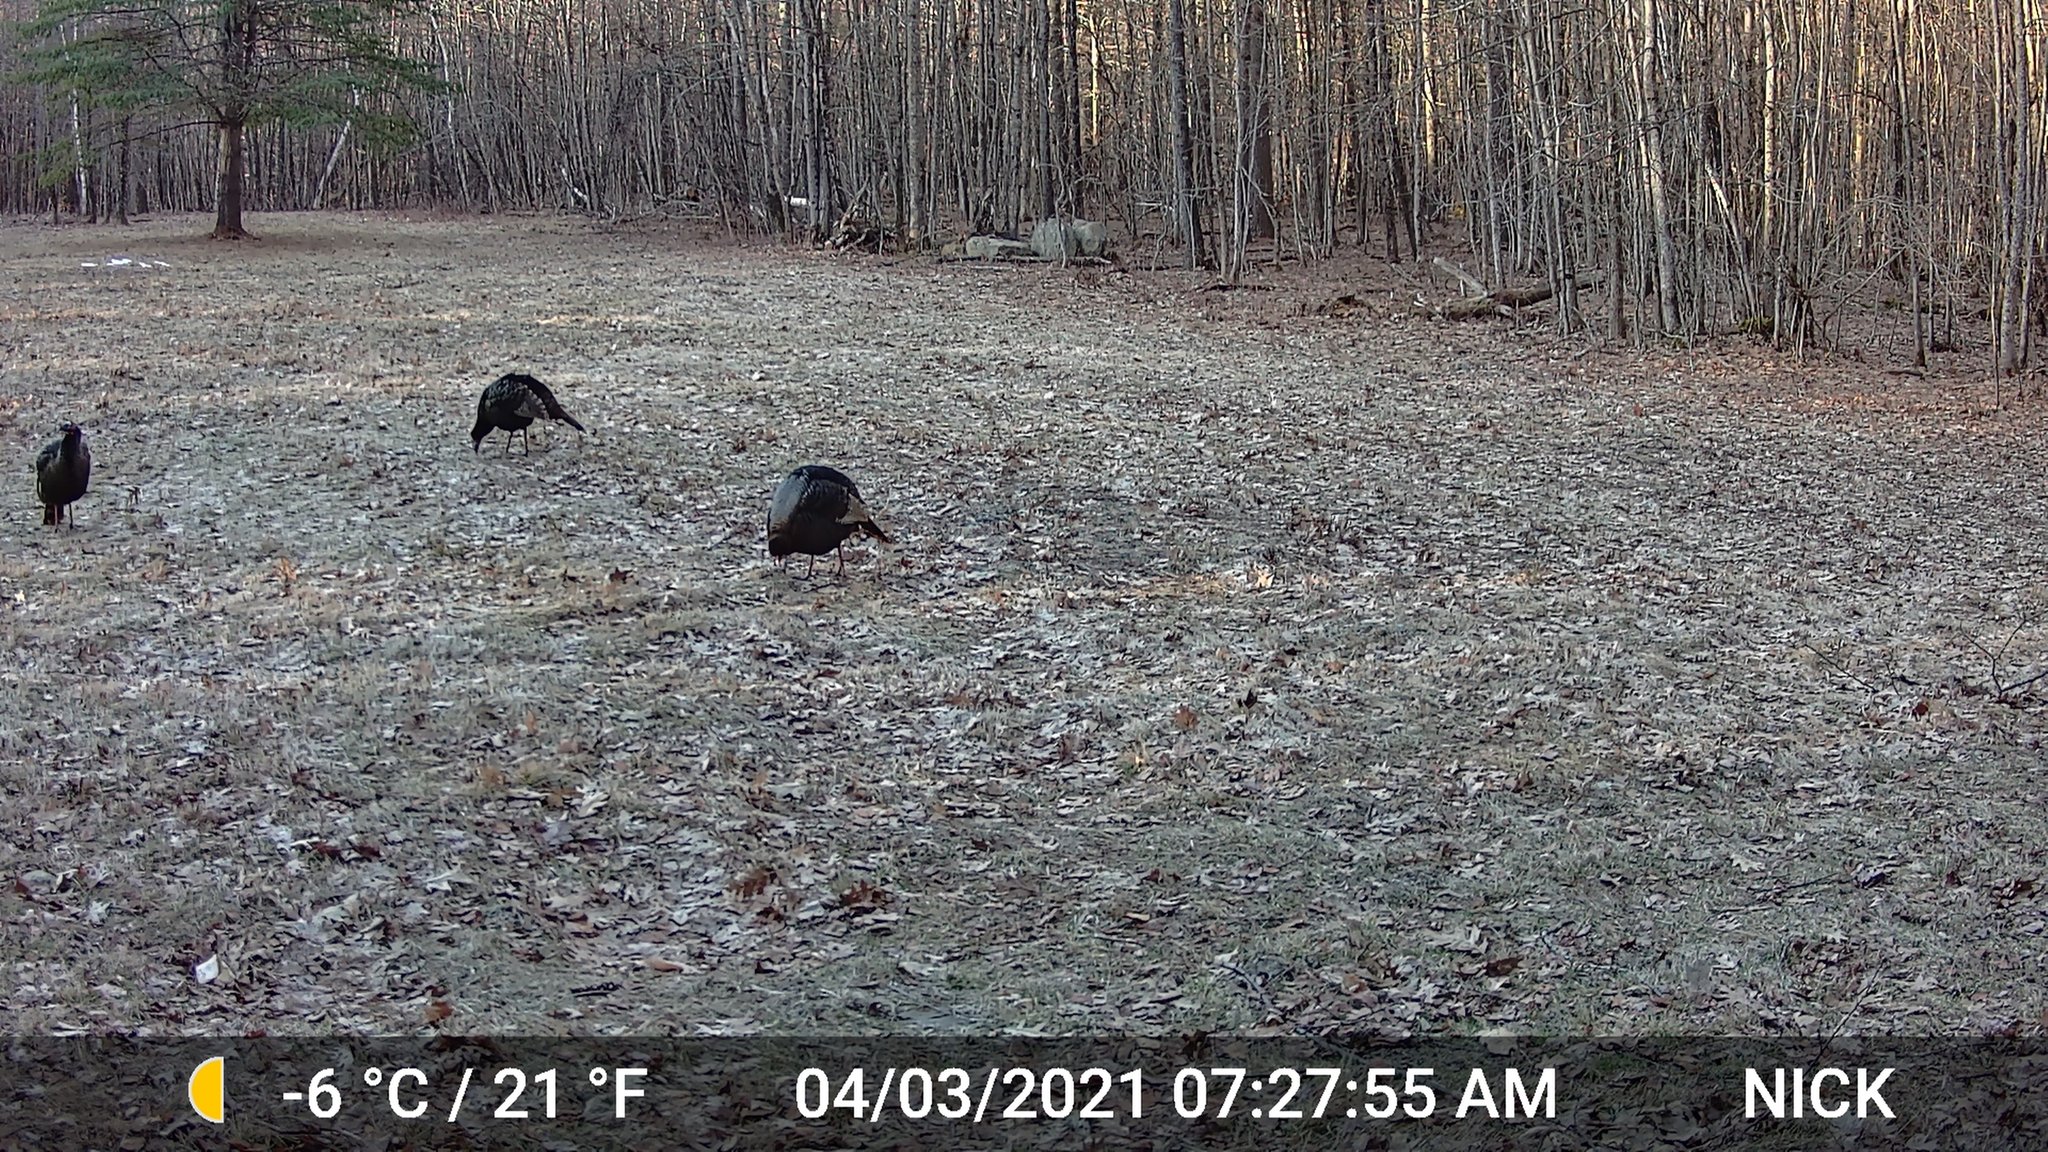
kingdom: Animalia
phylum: Chordata
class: Aves
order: Galliformes
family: Phasianidae
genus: Meleagris
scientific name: Meleagris gallopavo
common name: Wild turkey
